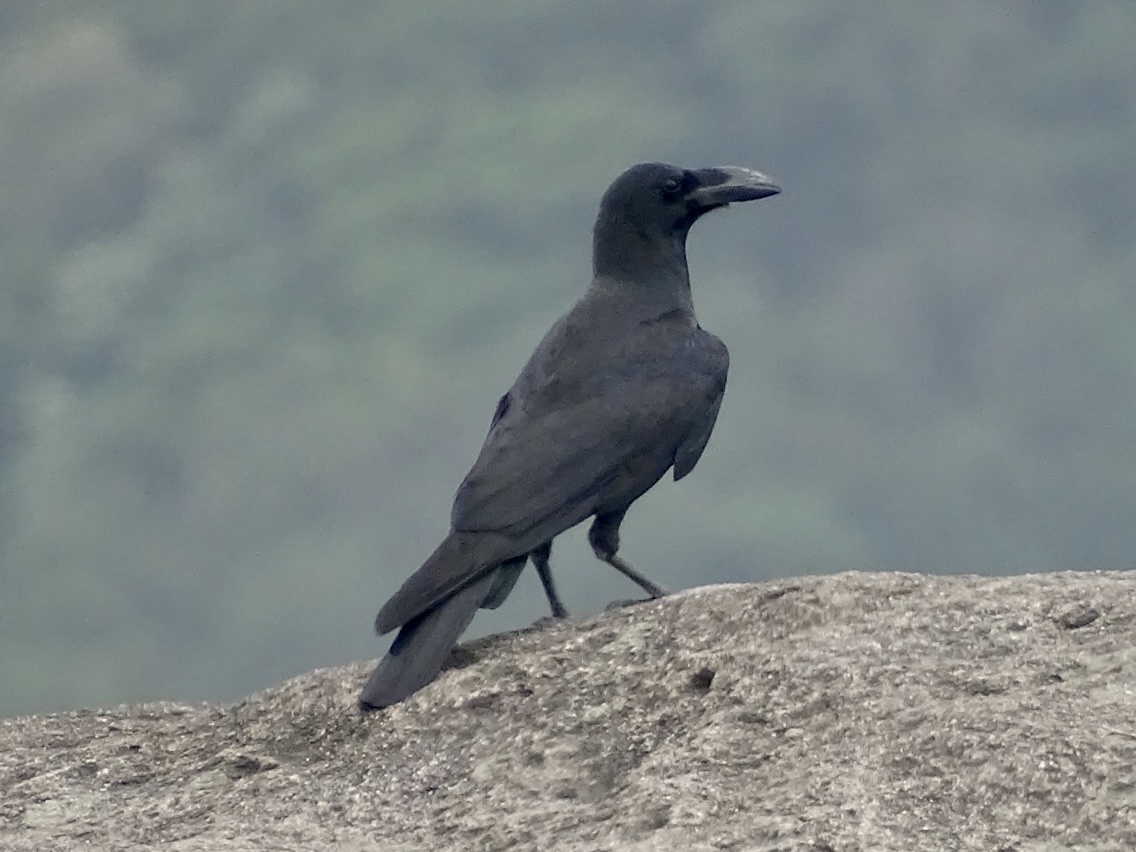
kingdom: Animalia
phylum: Chordata
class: Aves
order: Passeriformes
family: Corvidae
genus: Corvus
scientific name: Corvus macrorhynchos
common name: Large-billed crow
